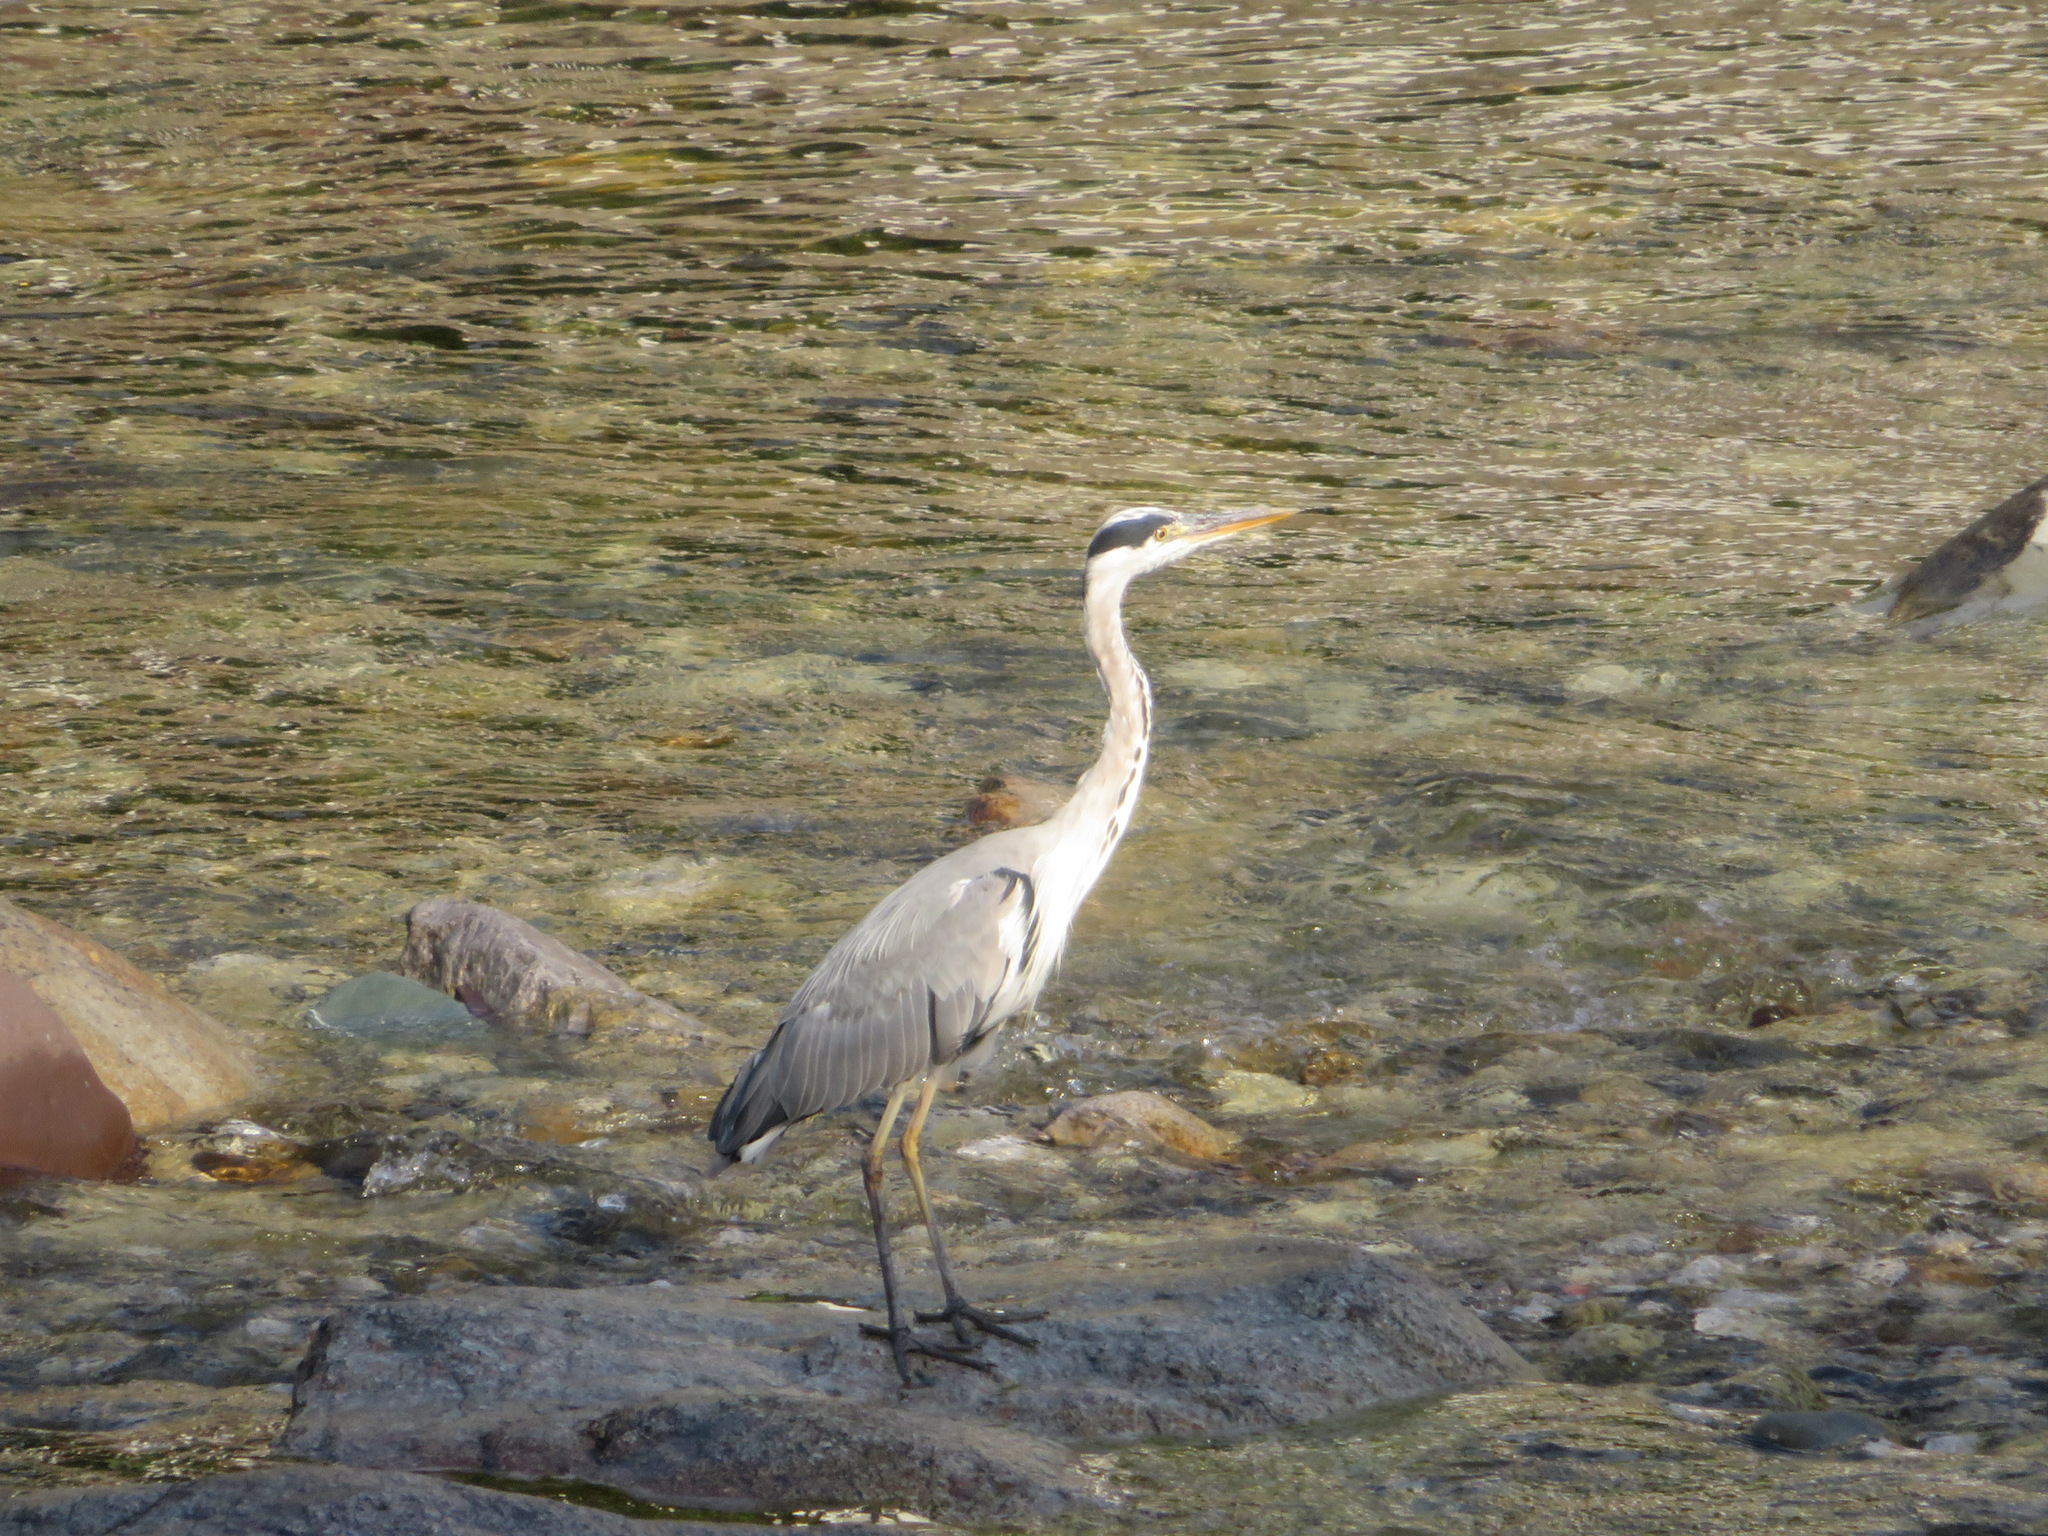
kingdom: Animalia
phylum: Chordata
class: Aves
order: Pelecaniformes
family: Ardeidae
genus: Ardea
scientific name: Ardea cinerea
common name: Grey heron
